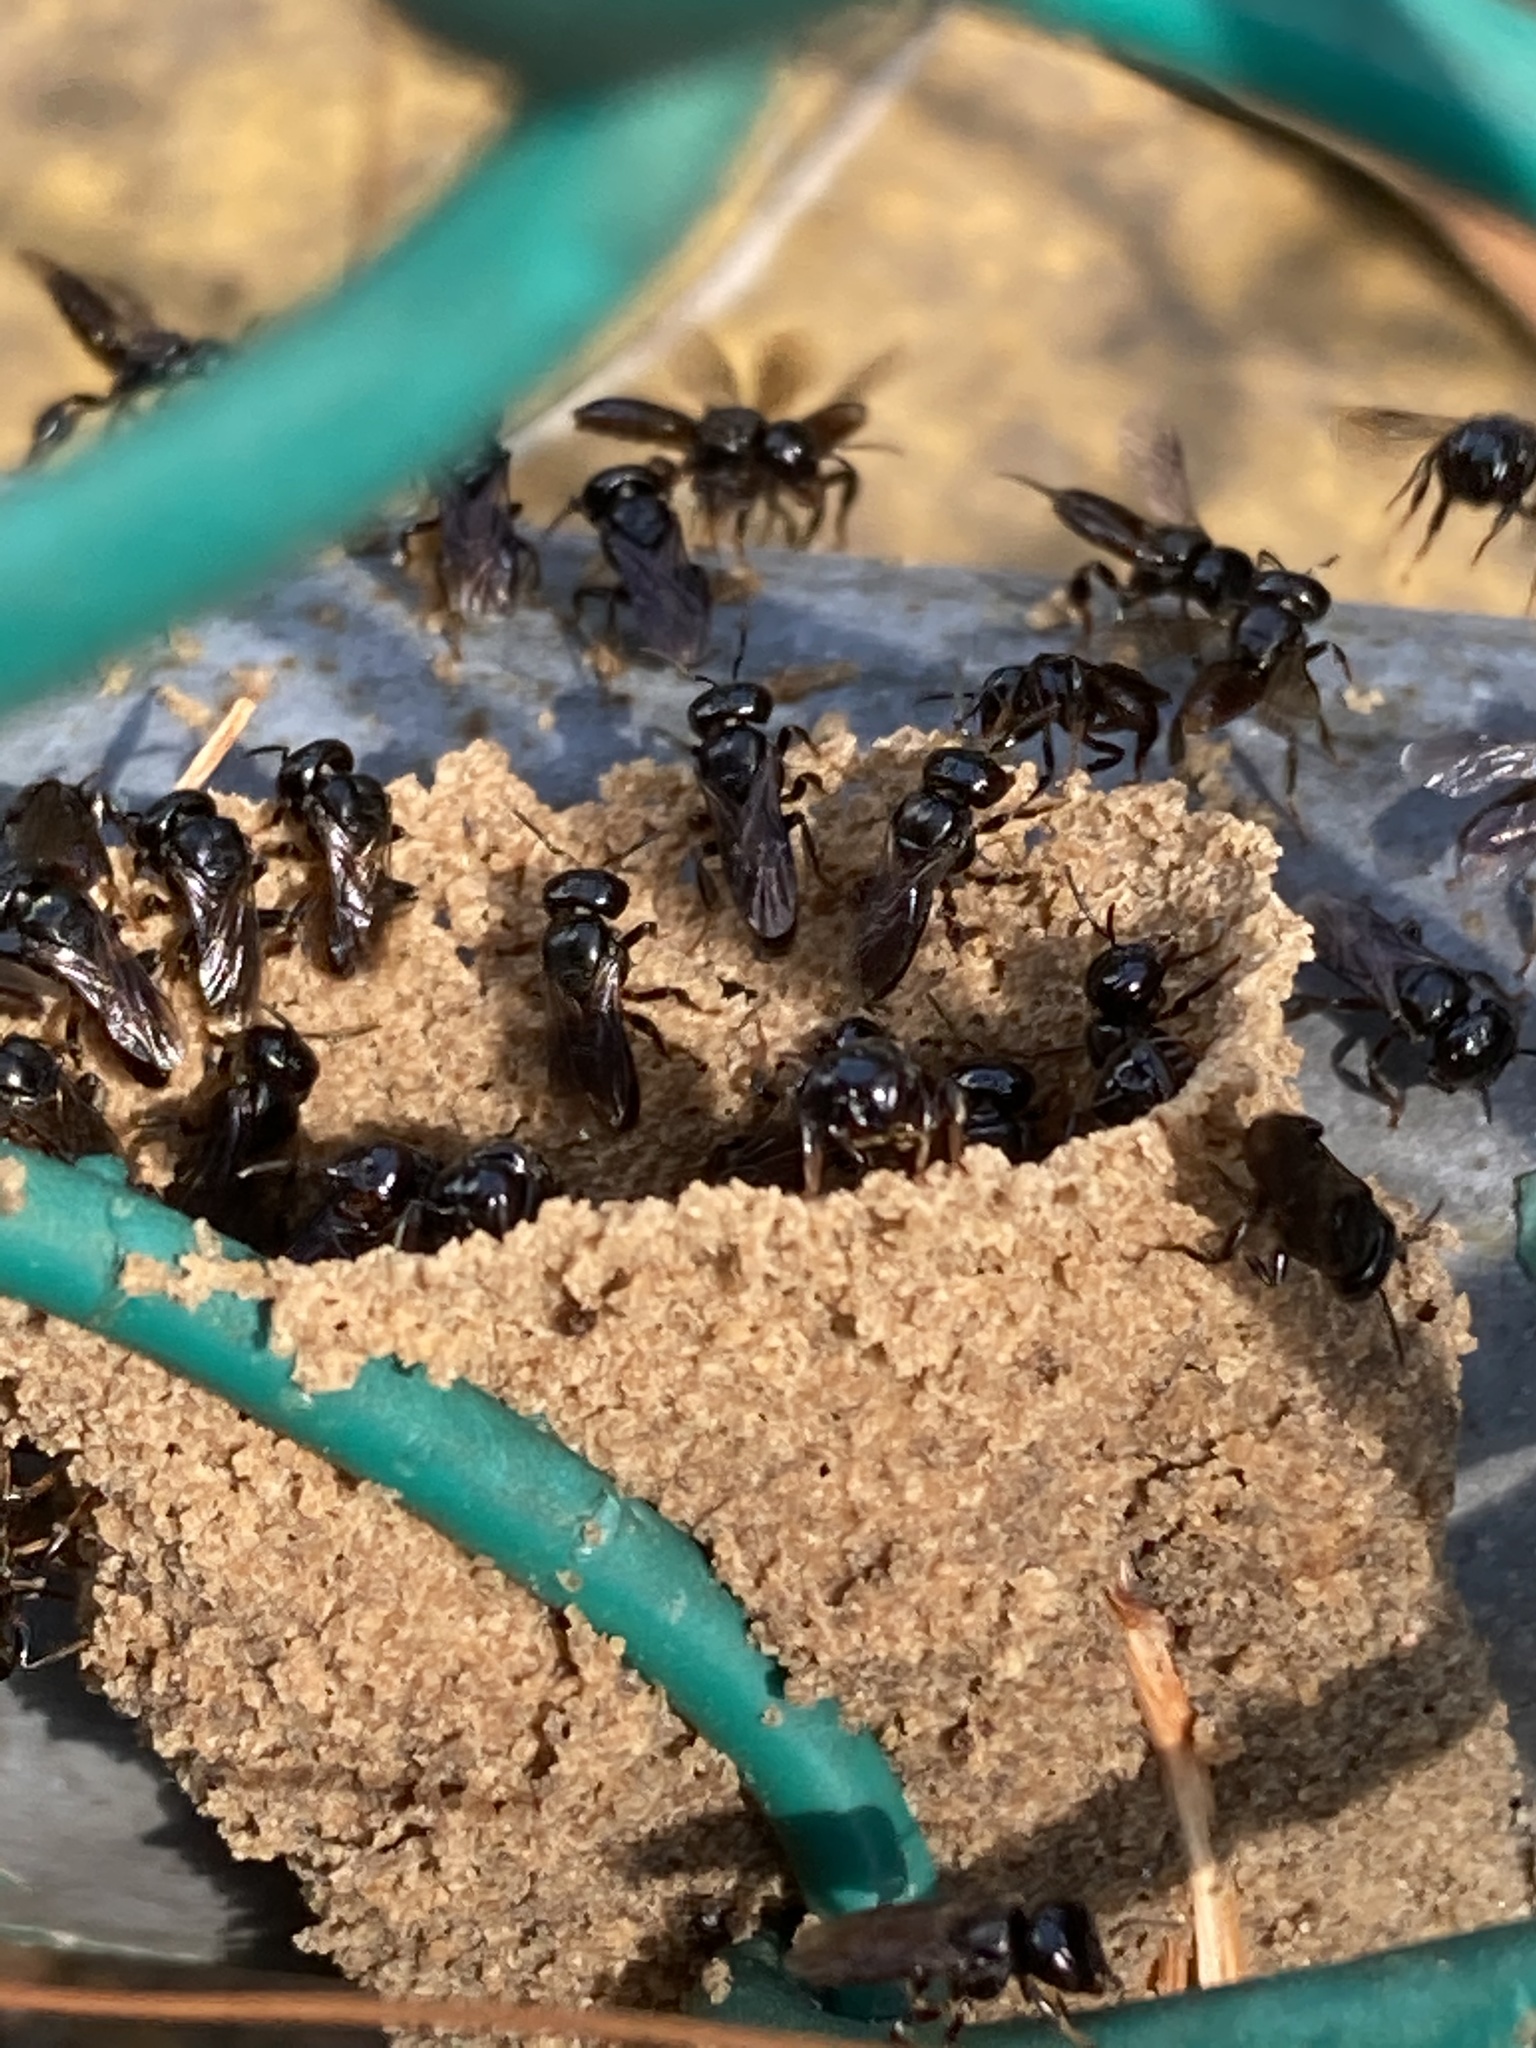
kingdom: Animalia
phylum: Arthropoda
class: Insecta
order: Hymenoptera
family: Apidae
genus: Lestrimelitta
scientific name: Lestrimelitta niitkib
